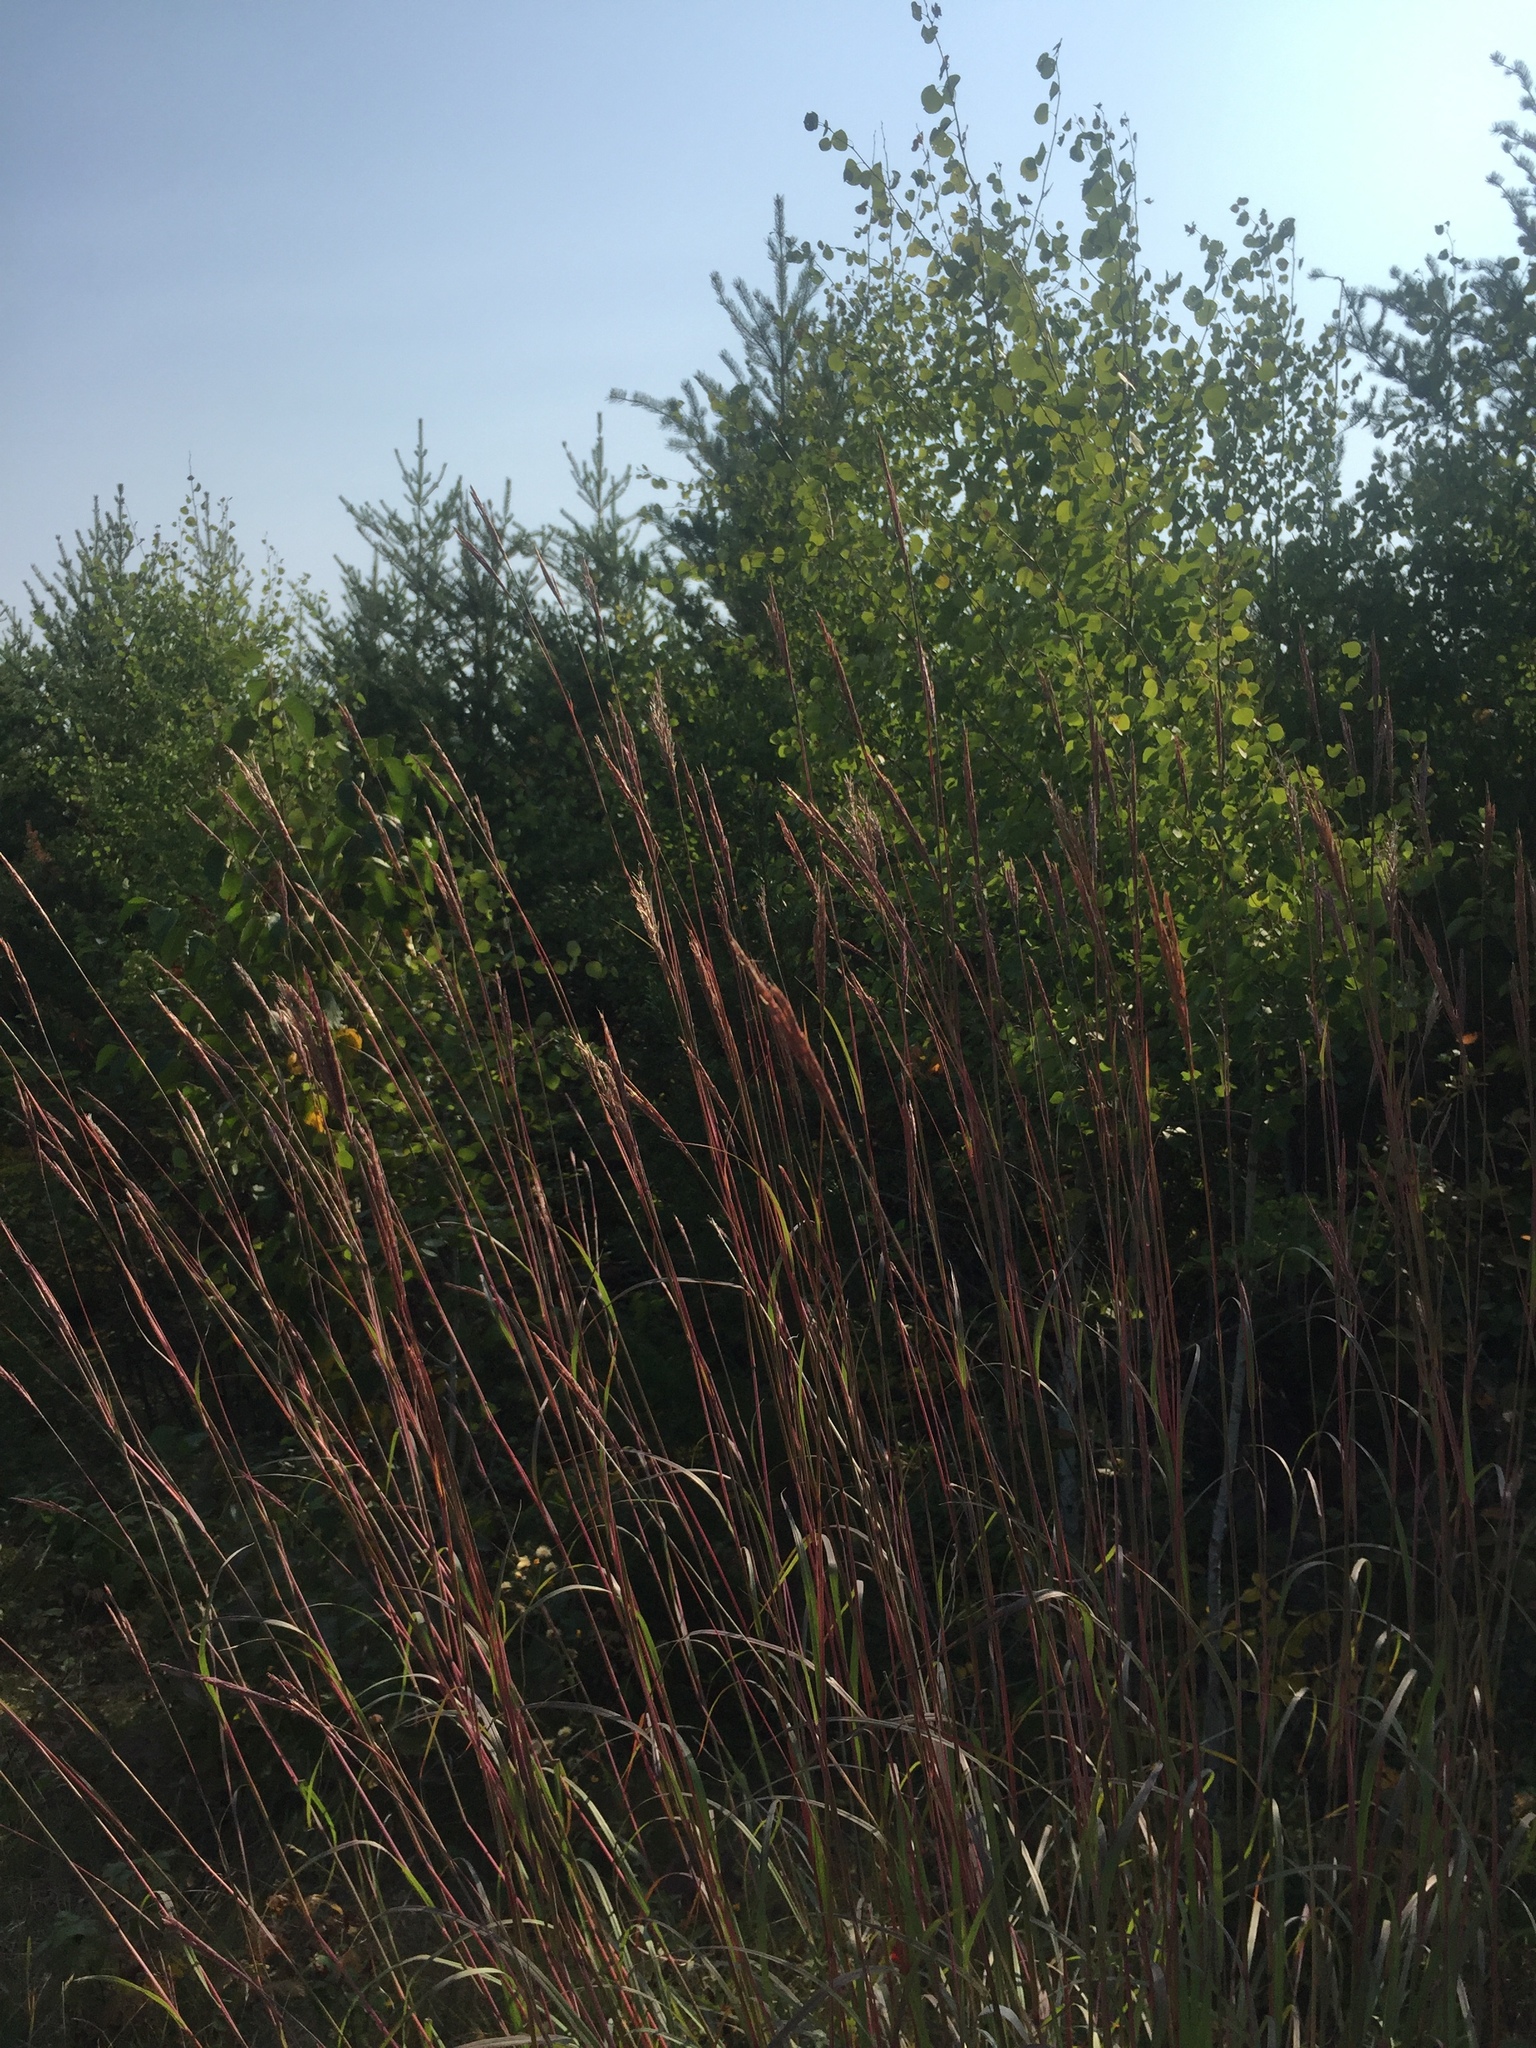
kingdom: Plantae
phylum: Tracheophyta
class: Liliopsida
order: Poales
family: Poaceae
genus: Andropogon
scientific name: Andropogon gerardi
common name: Big bluestem
